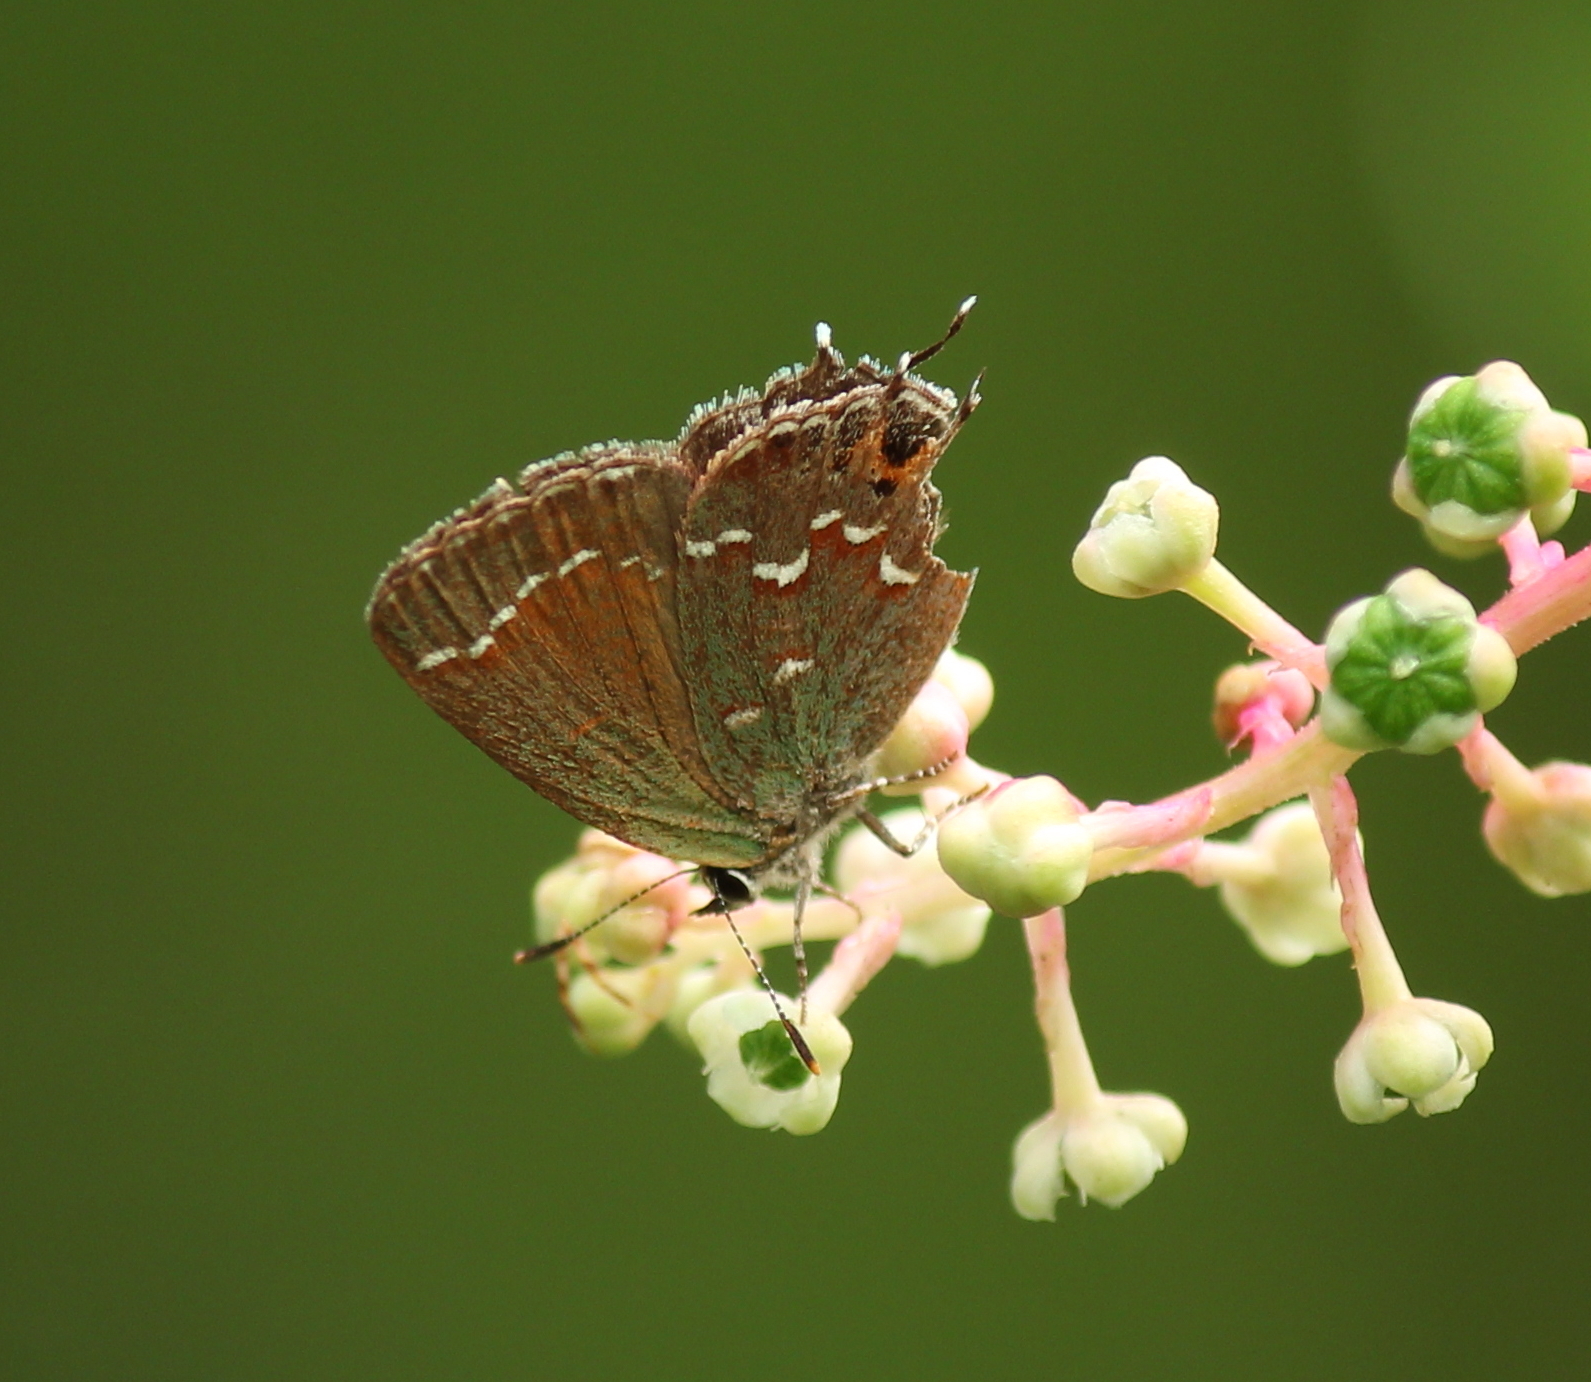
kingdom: Animalia
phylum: Arthropoda
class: Insecta
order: Lepidoptera
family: Lycaenidae
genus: Mitoura
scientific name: Mitoura gryneus
